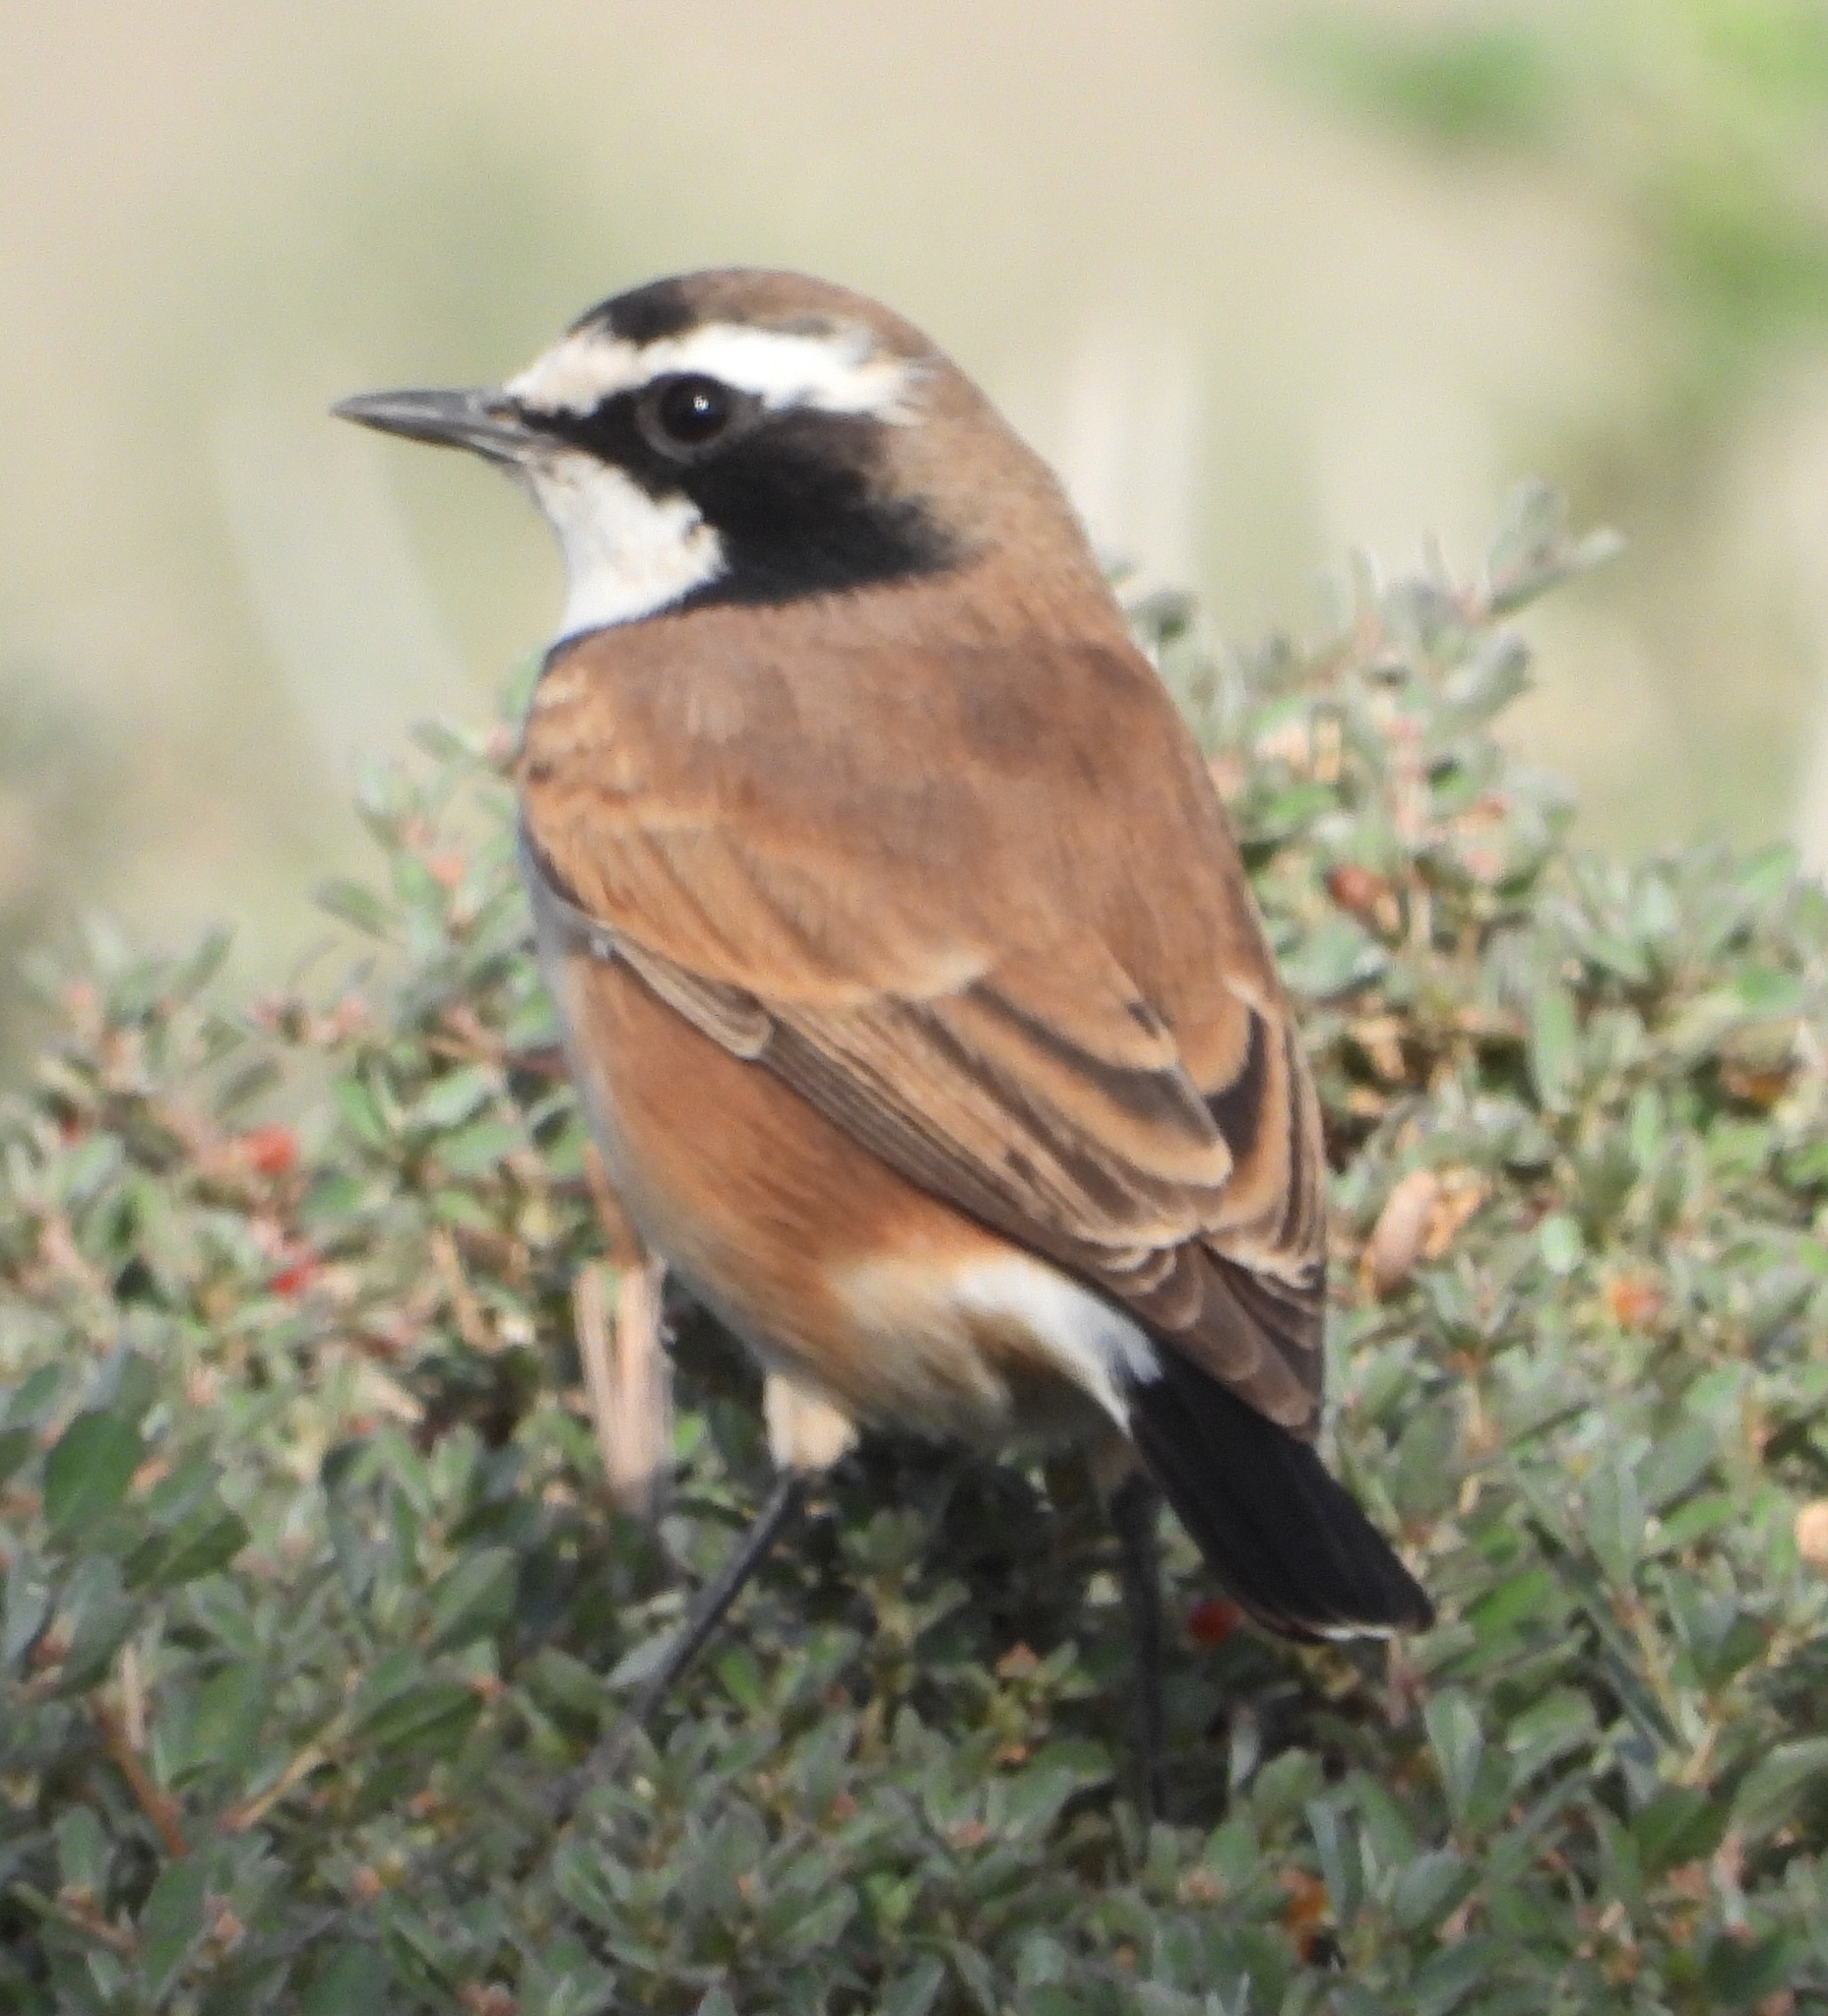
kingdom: Animalia
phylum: Chordata
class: Aves
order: Passeriformes
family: Muscicapidae
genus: Oenanthe
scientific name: Oenanthe pileata
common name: Capped wheatear
